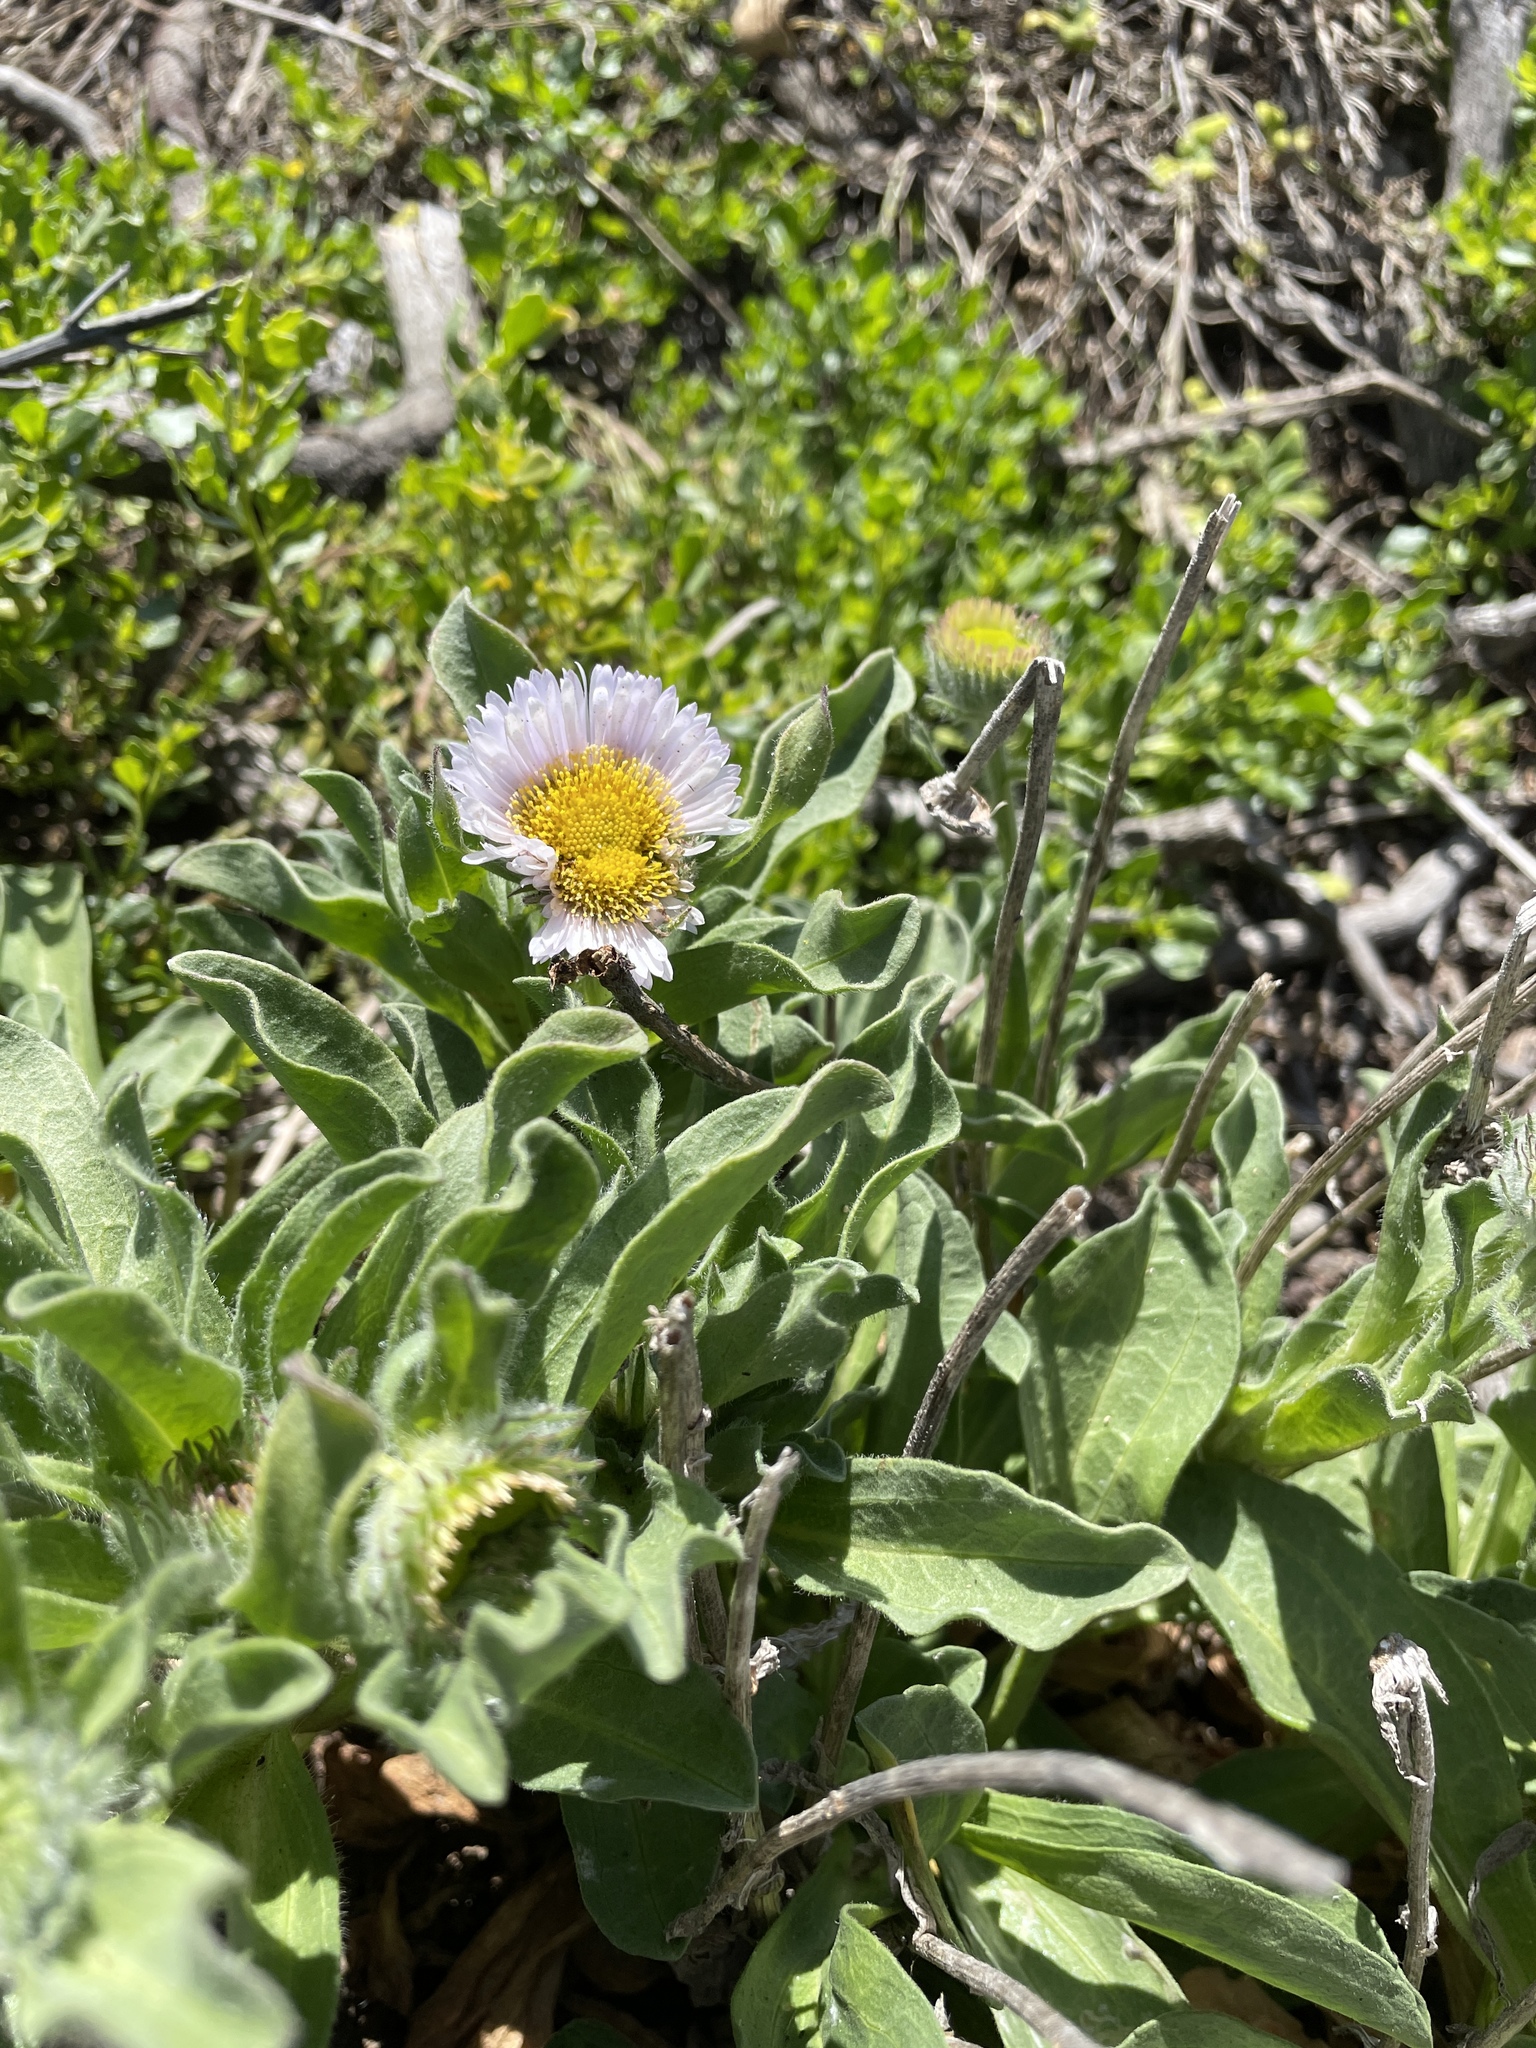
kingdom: Plantae
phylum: Tracheophyta
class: Magnoliopsida
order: Asterales
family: Asteraceae
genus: Erigeron
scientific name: Erigeron glaucus
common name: Seaside daisy
